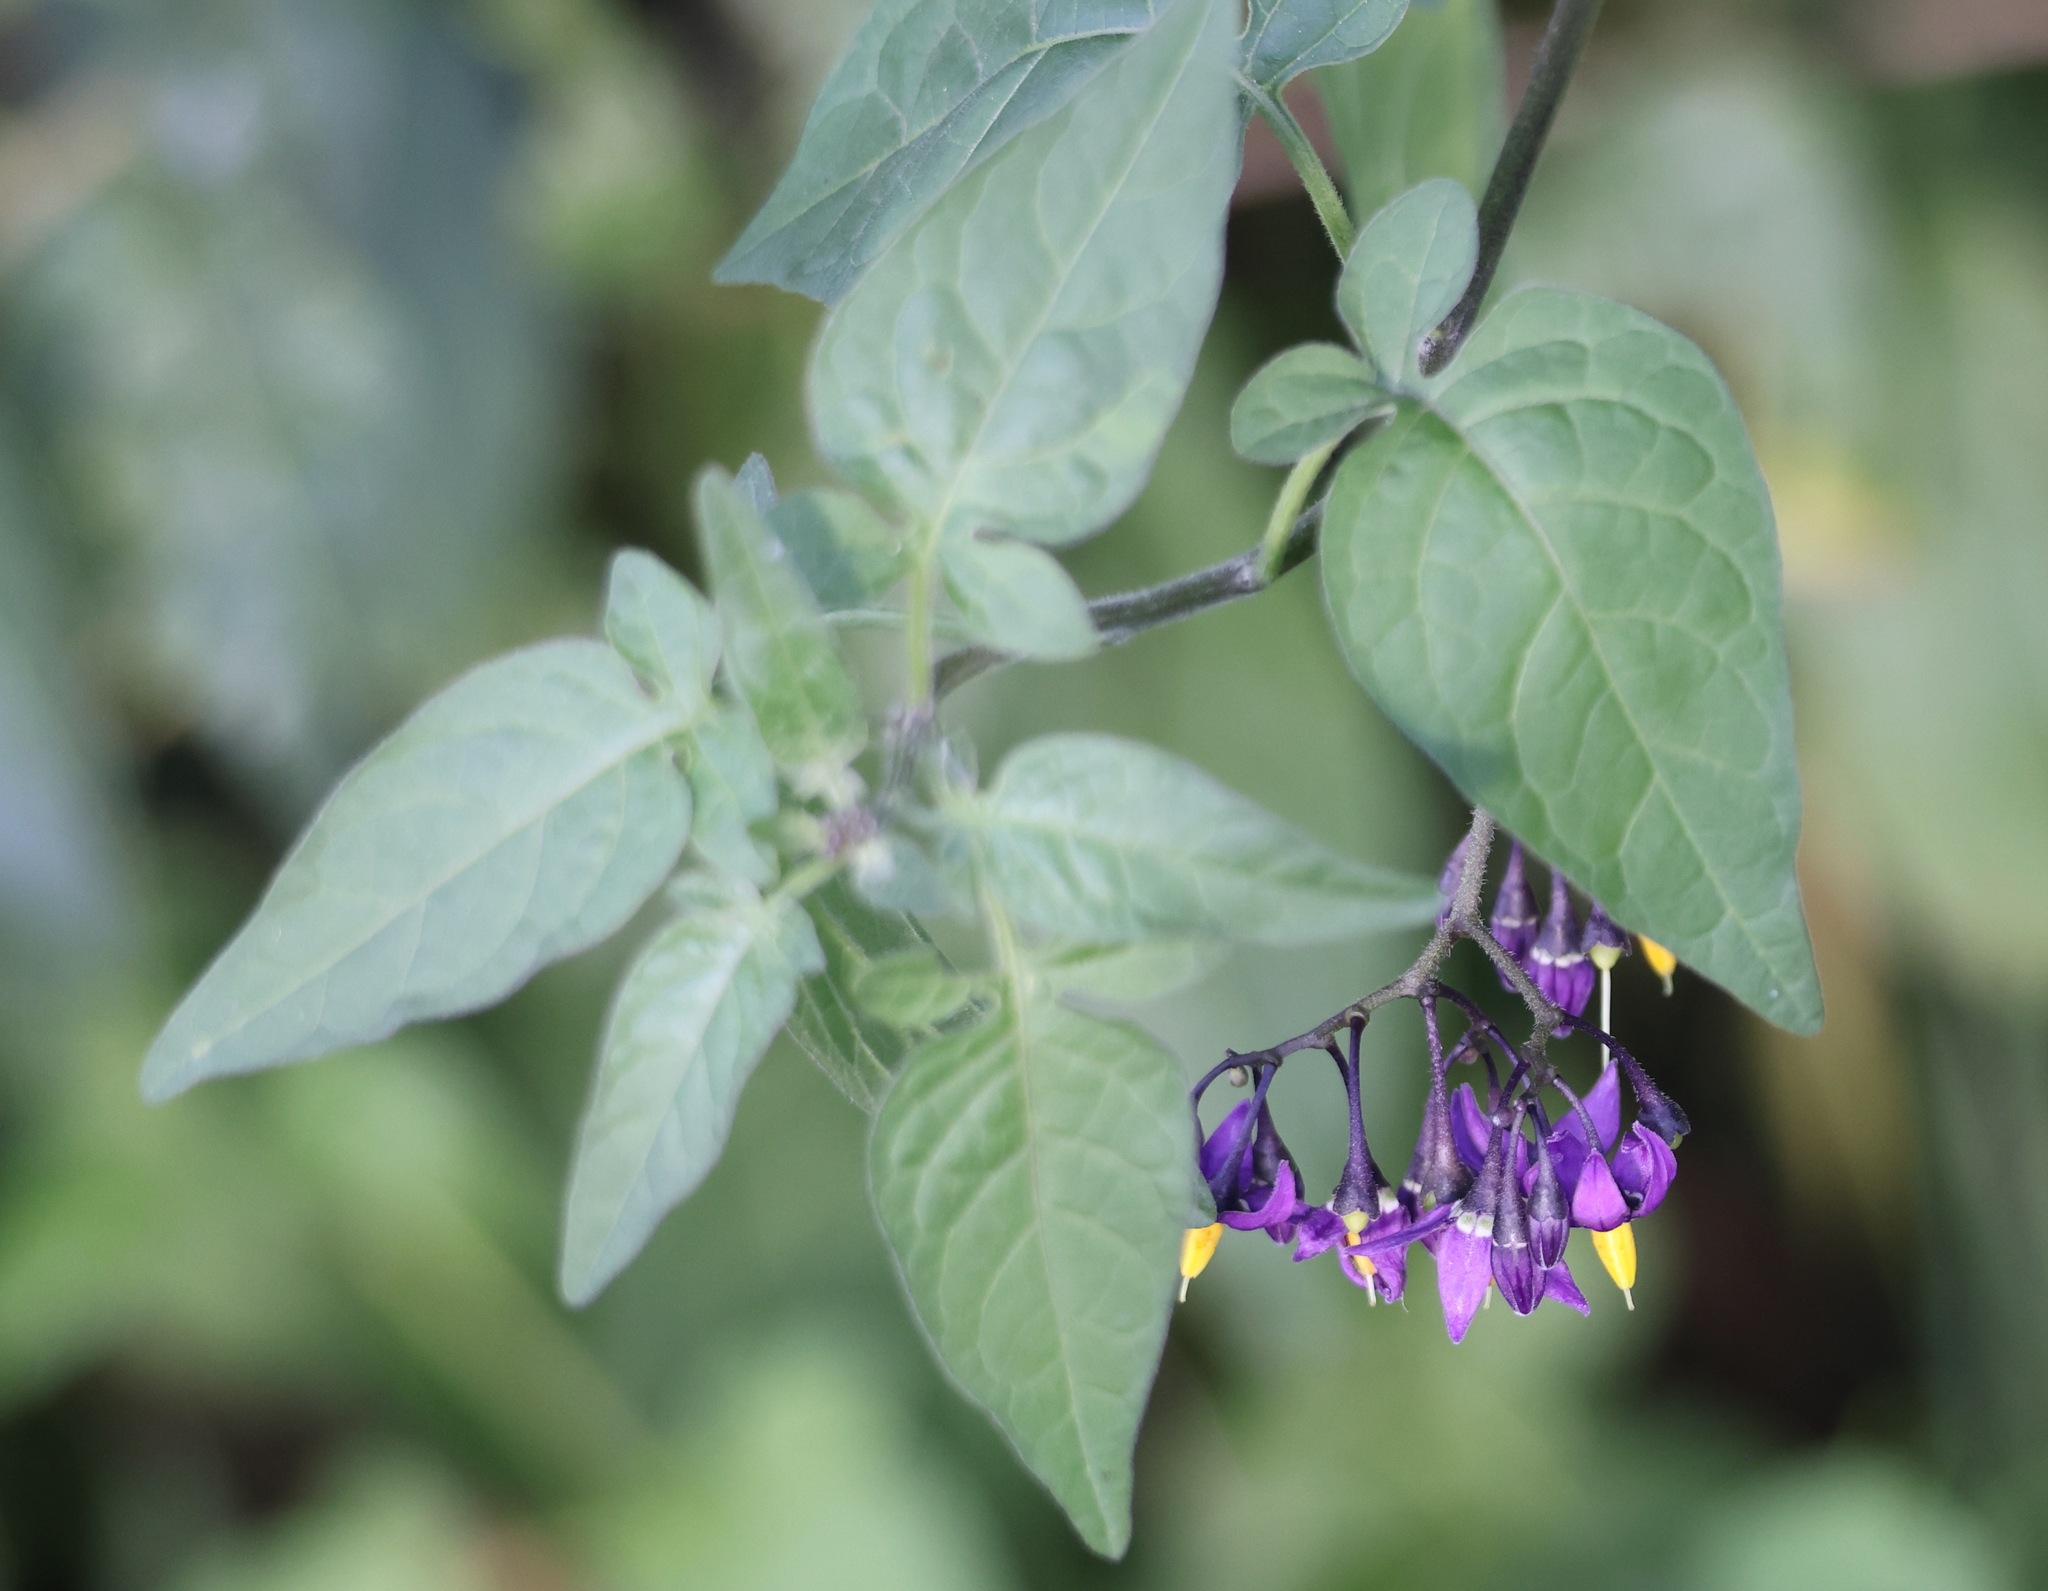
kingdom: Plantae
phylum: Tracheophyta
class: Magnoliopsida
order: Solanales
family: Solanaceae
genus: Solanum
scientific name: Solanum dulcamara
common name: Climbing nightshade
